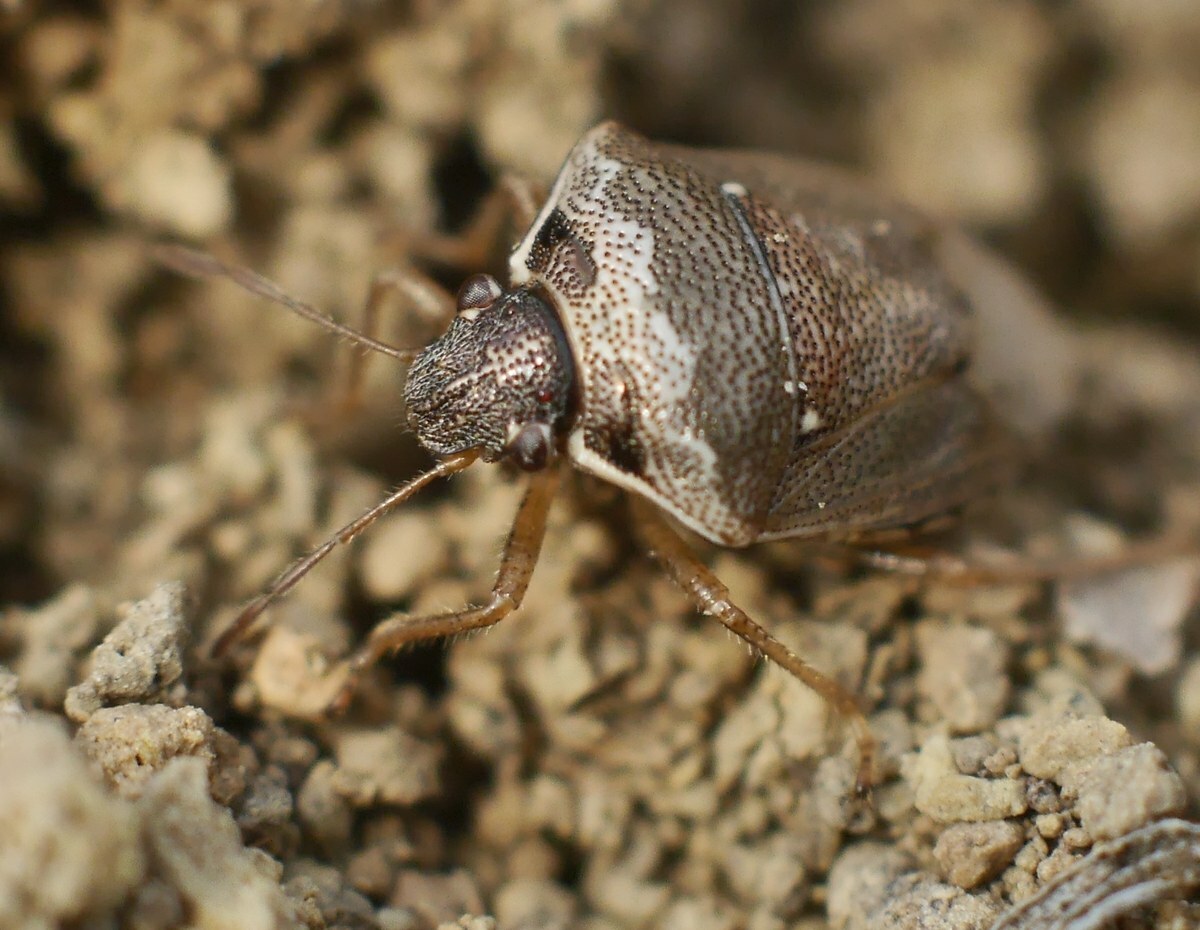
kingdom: Animalia
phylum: Arthropoda
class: Insecta
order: Hemiptera
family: Pentatomidae
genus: Eysarcoris
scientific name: Eysarcoris ventralis
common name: White-spotted stink bug
